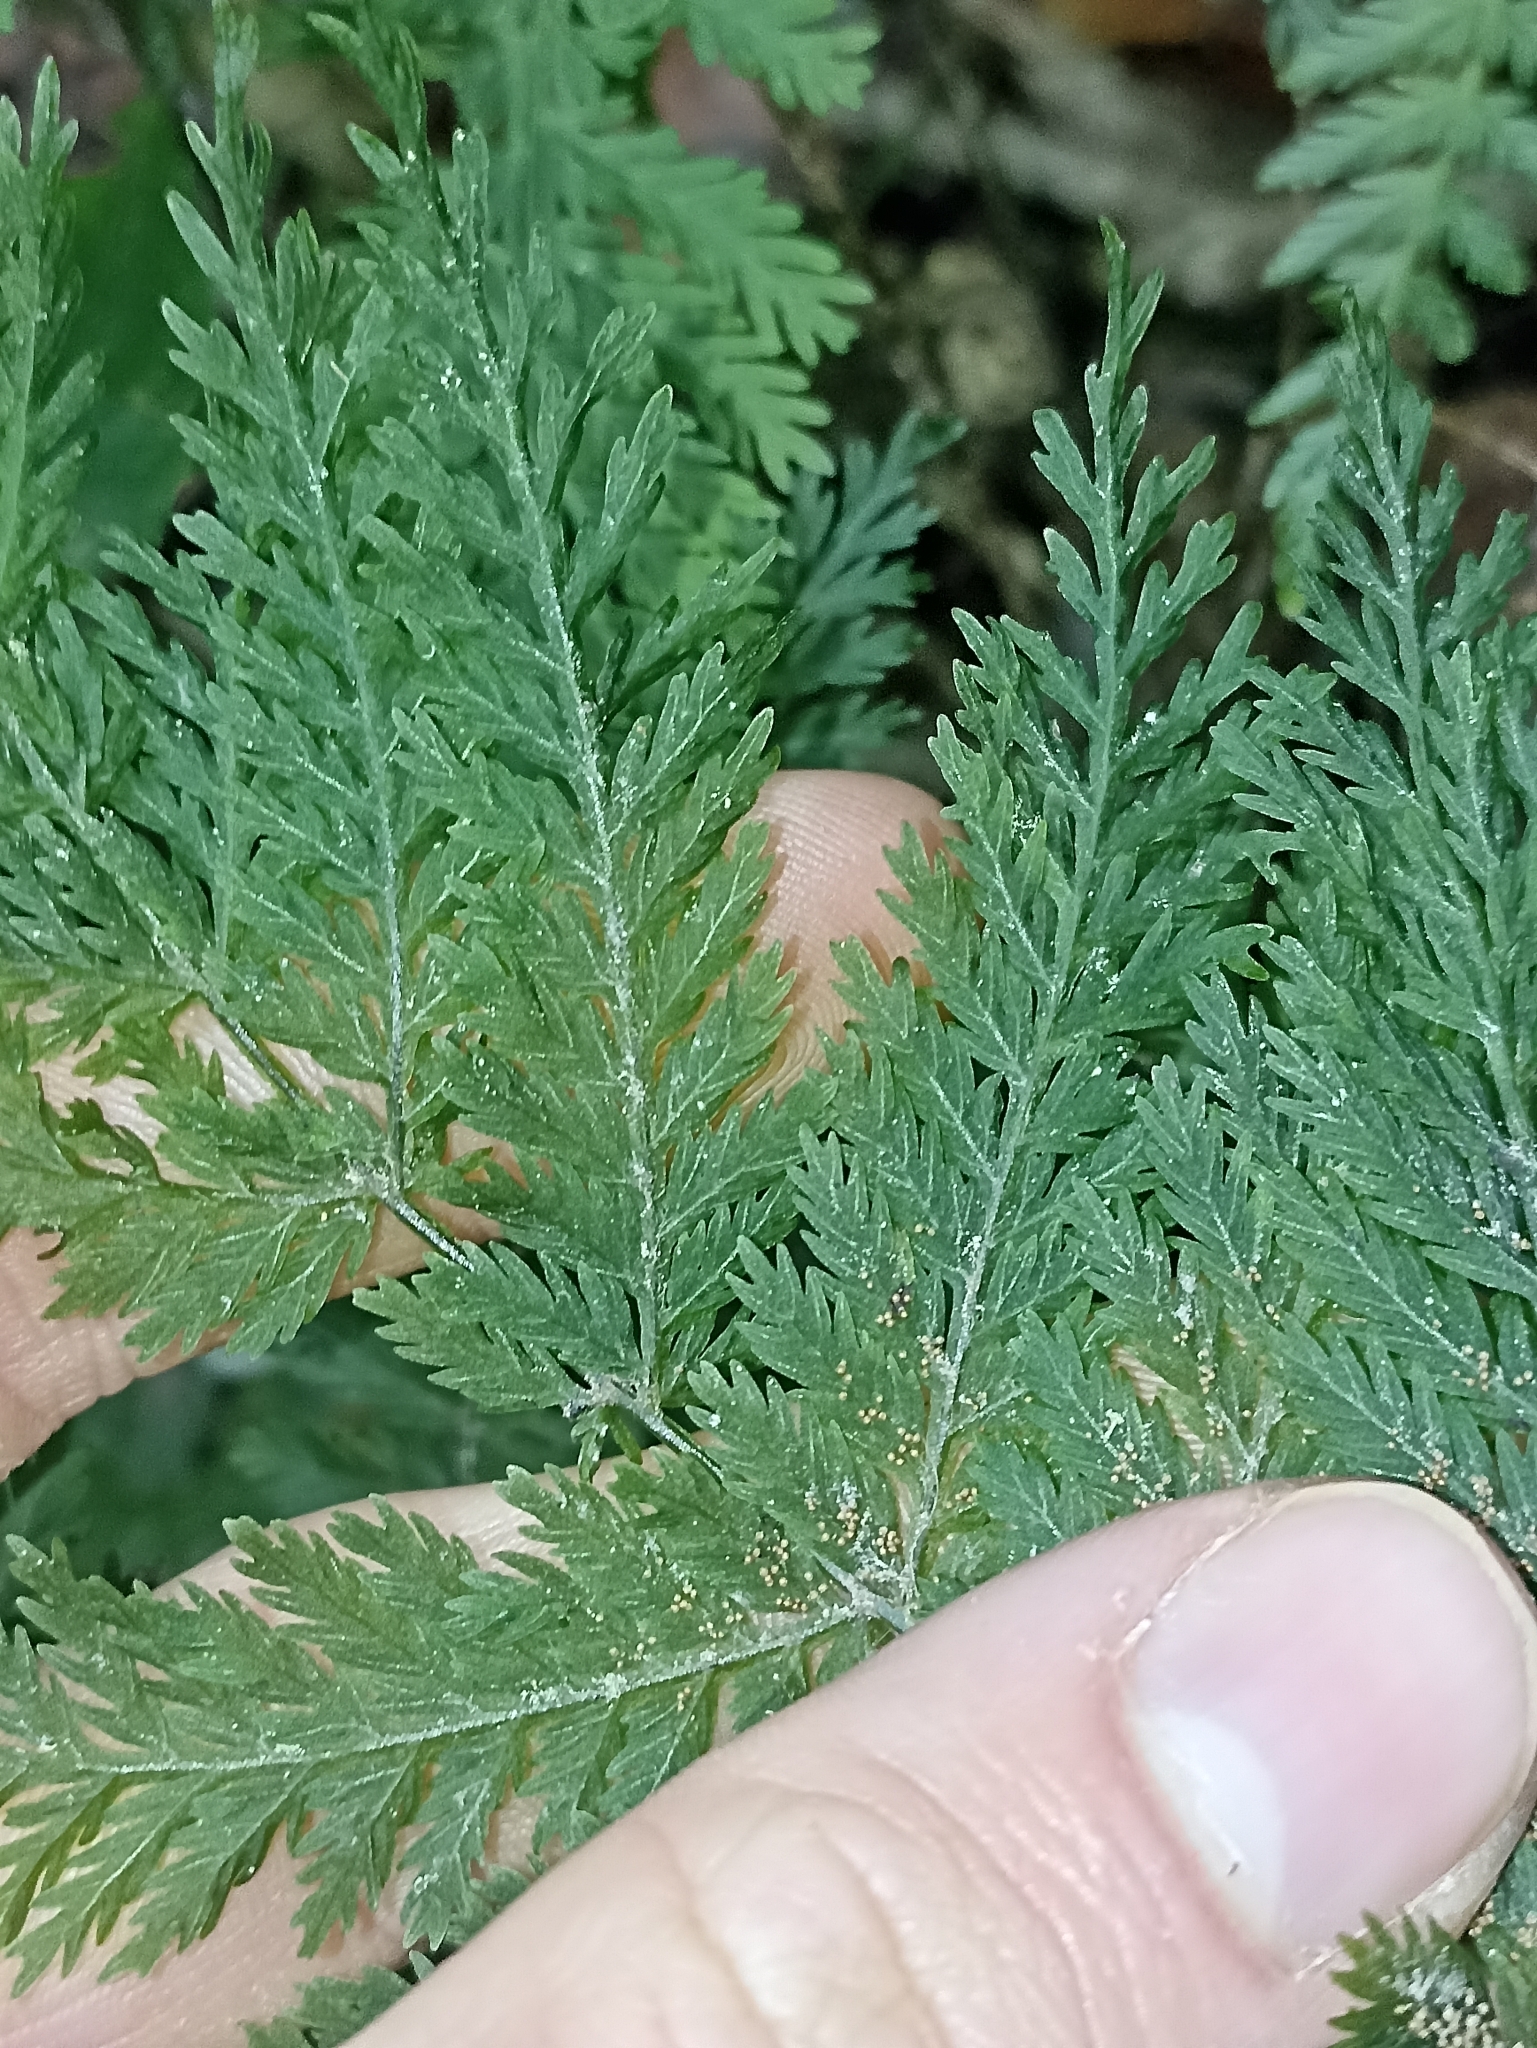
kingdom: Plantae
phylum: Tracheophyta
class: Polypodiopsida
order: Osmundales
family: Osmundaceae
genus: Leptopteris
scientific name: Leptopteris hymenophylloides
